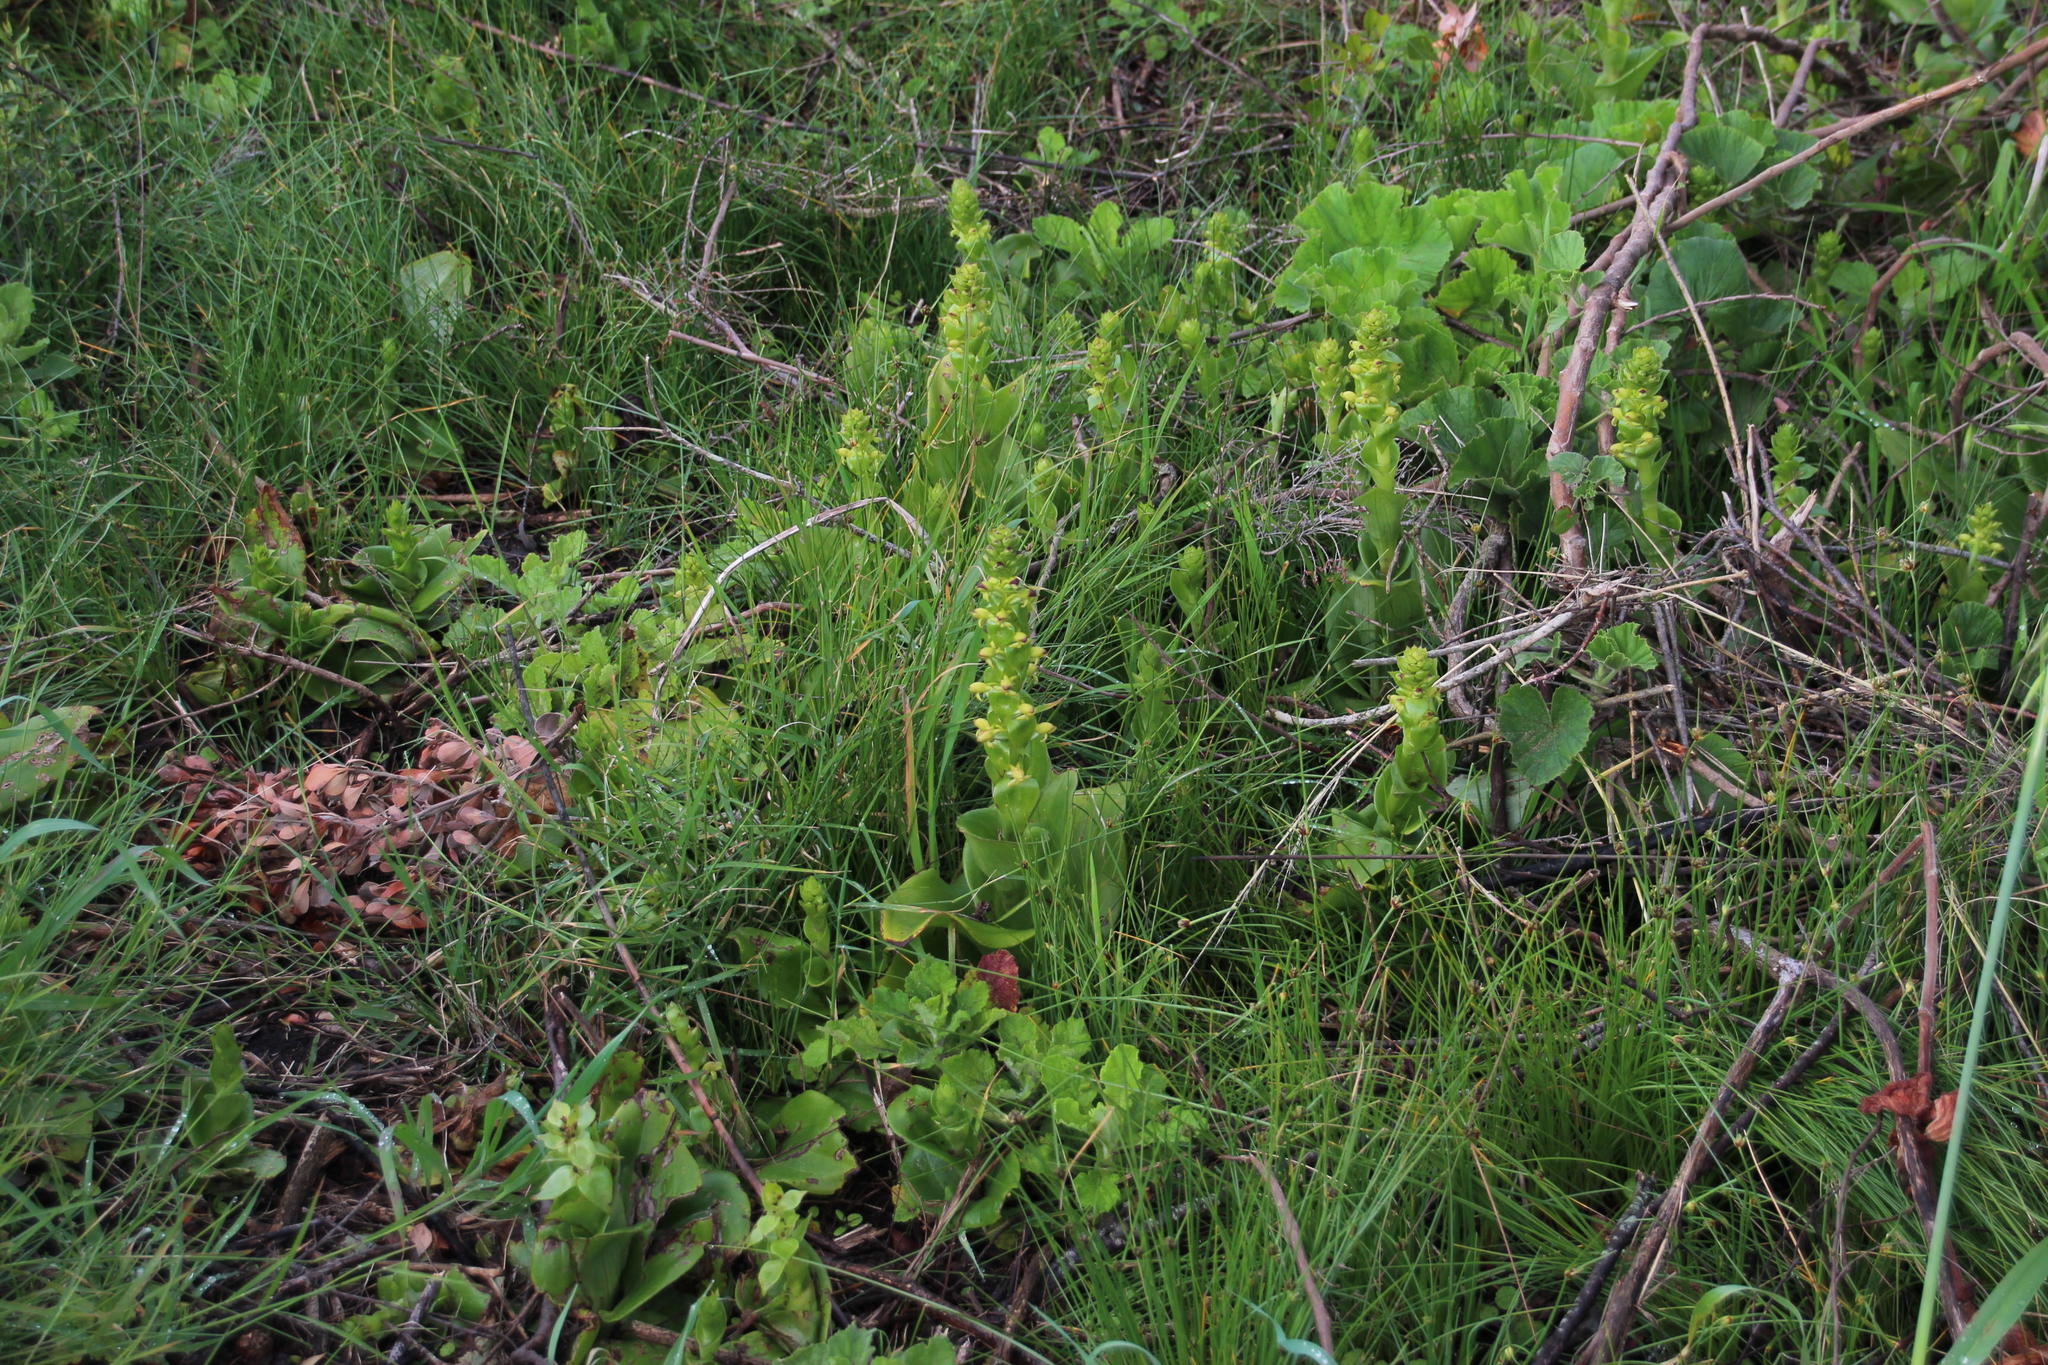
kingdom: Plantae
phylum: Tracheophyta
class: Liliopsida
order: Asparagales
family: Orchidaceae
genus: Satyrium
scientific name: Satyrium odorum
